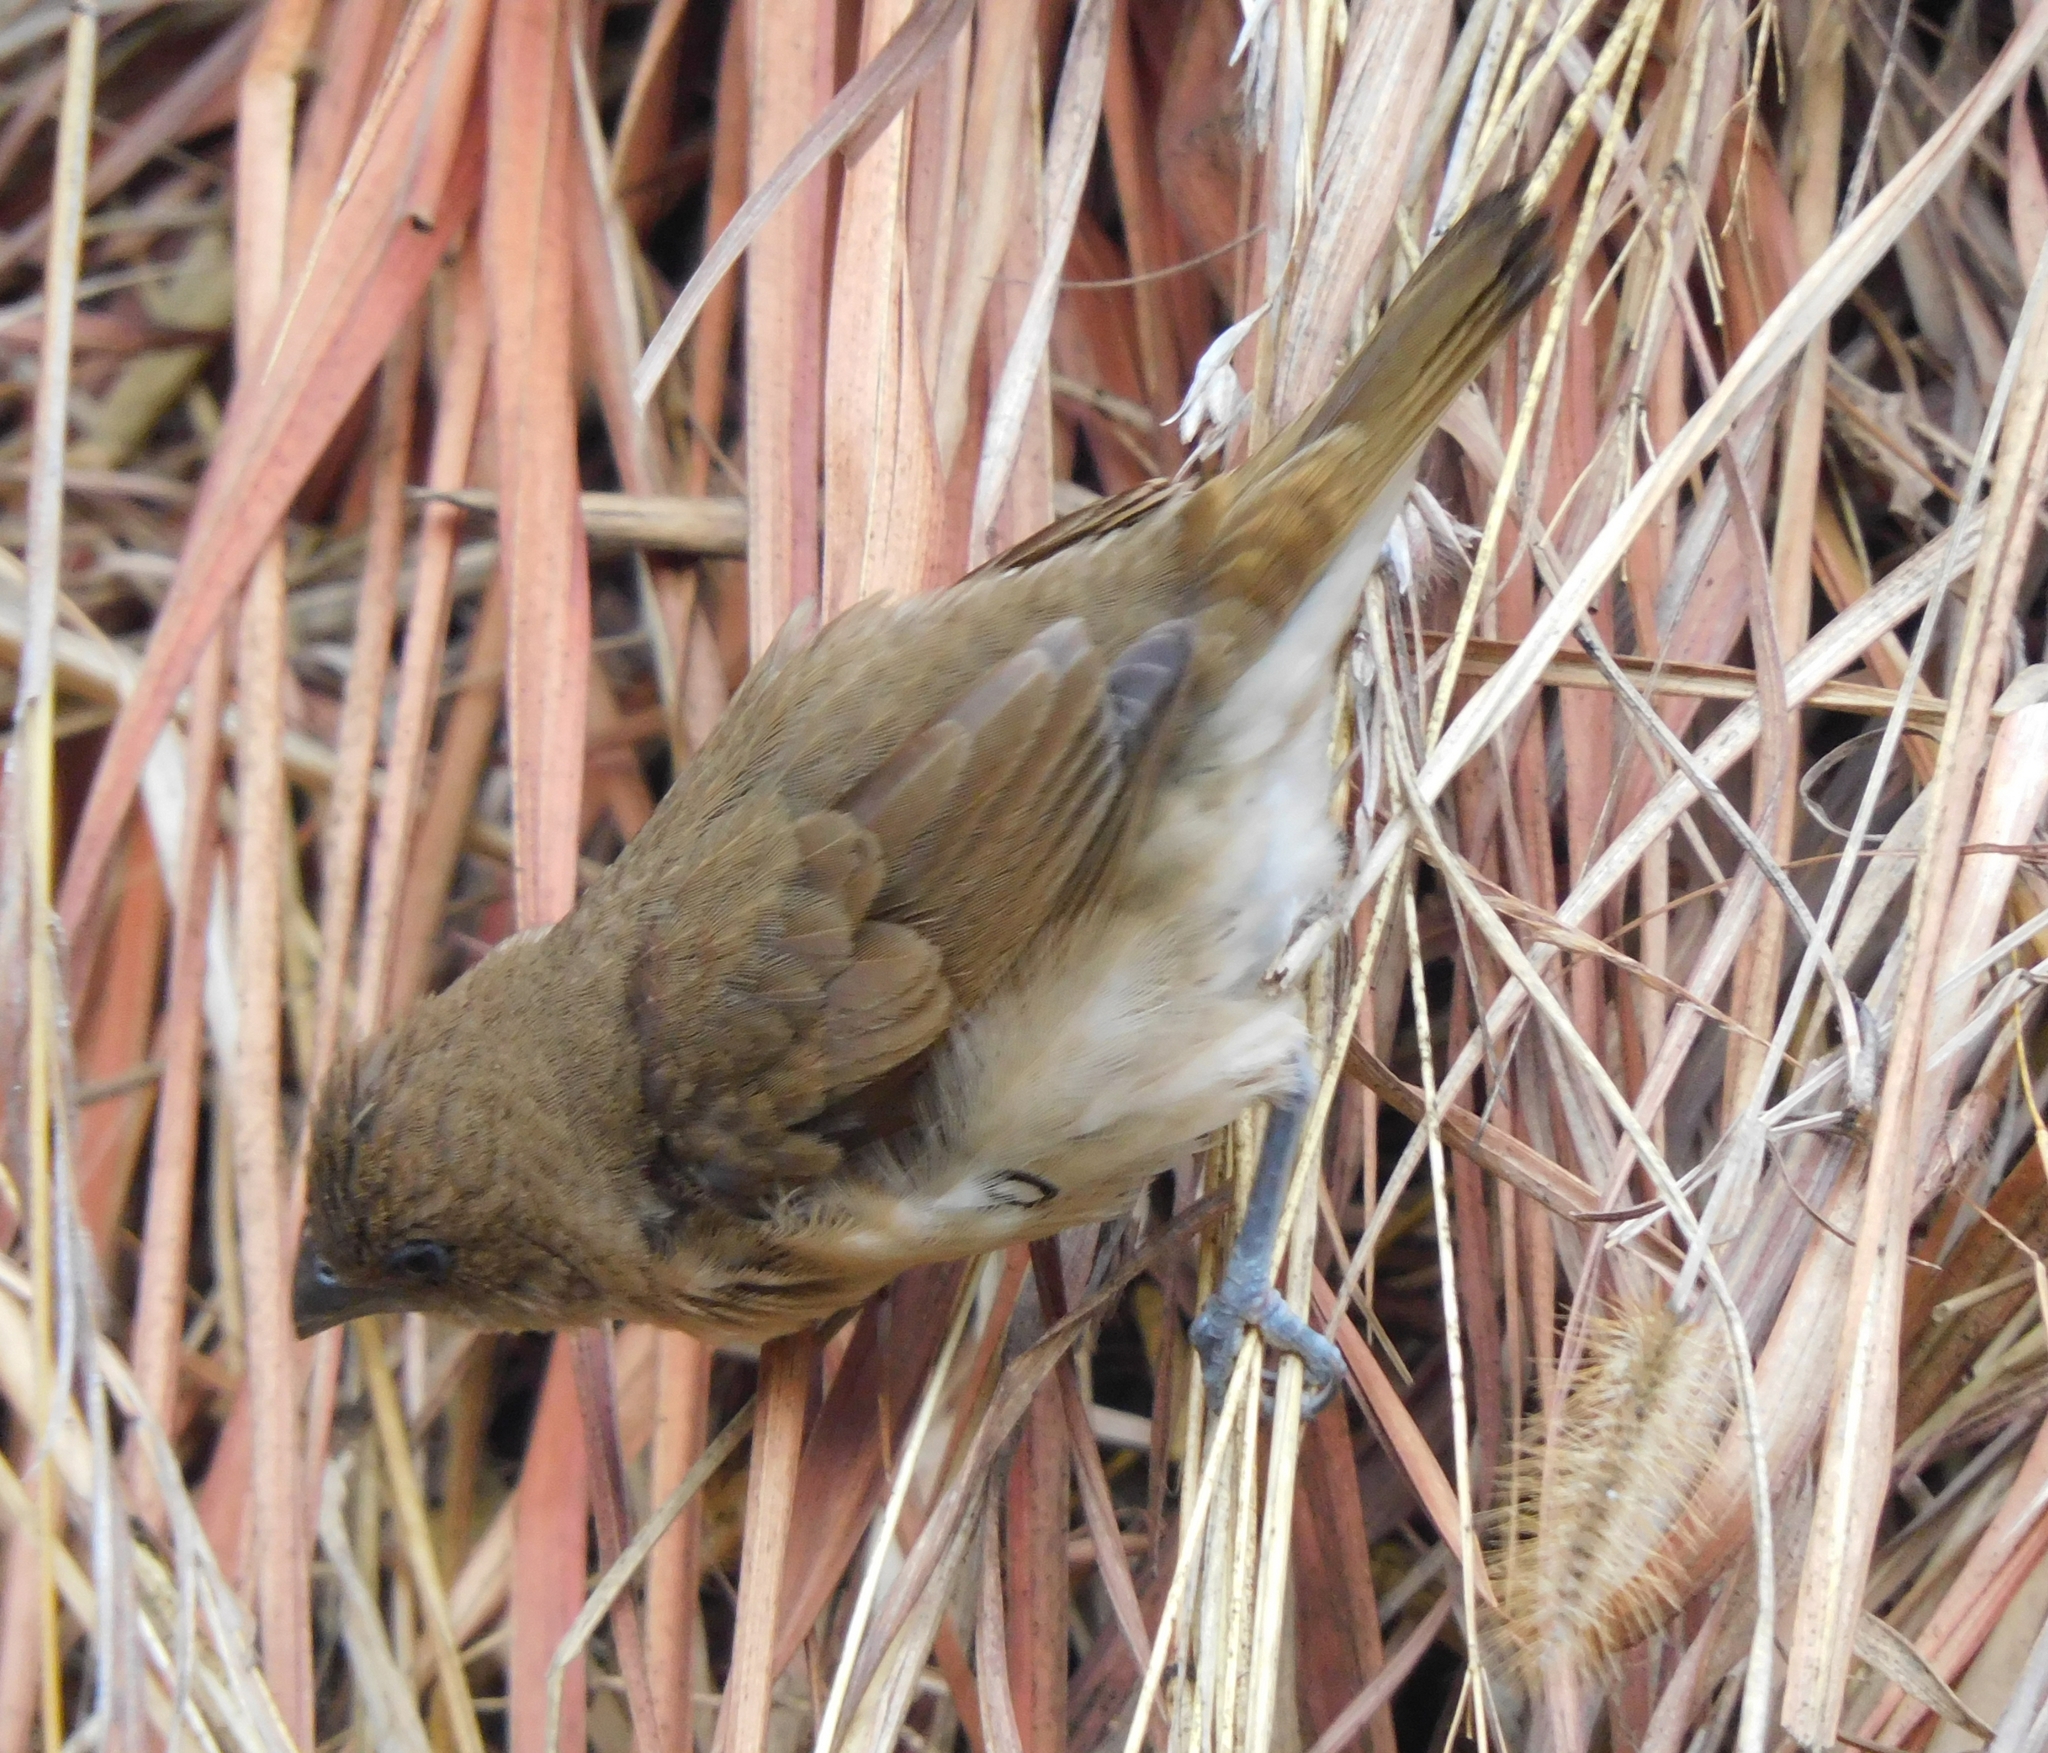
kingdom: Animalia
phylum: Chordata
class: Aves
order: Passeriformes
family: Estrildidae
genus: Lonchura
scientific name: Lonchura punctulata
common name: Scaly-breasted munia
